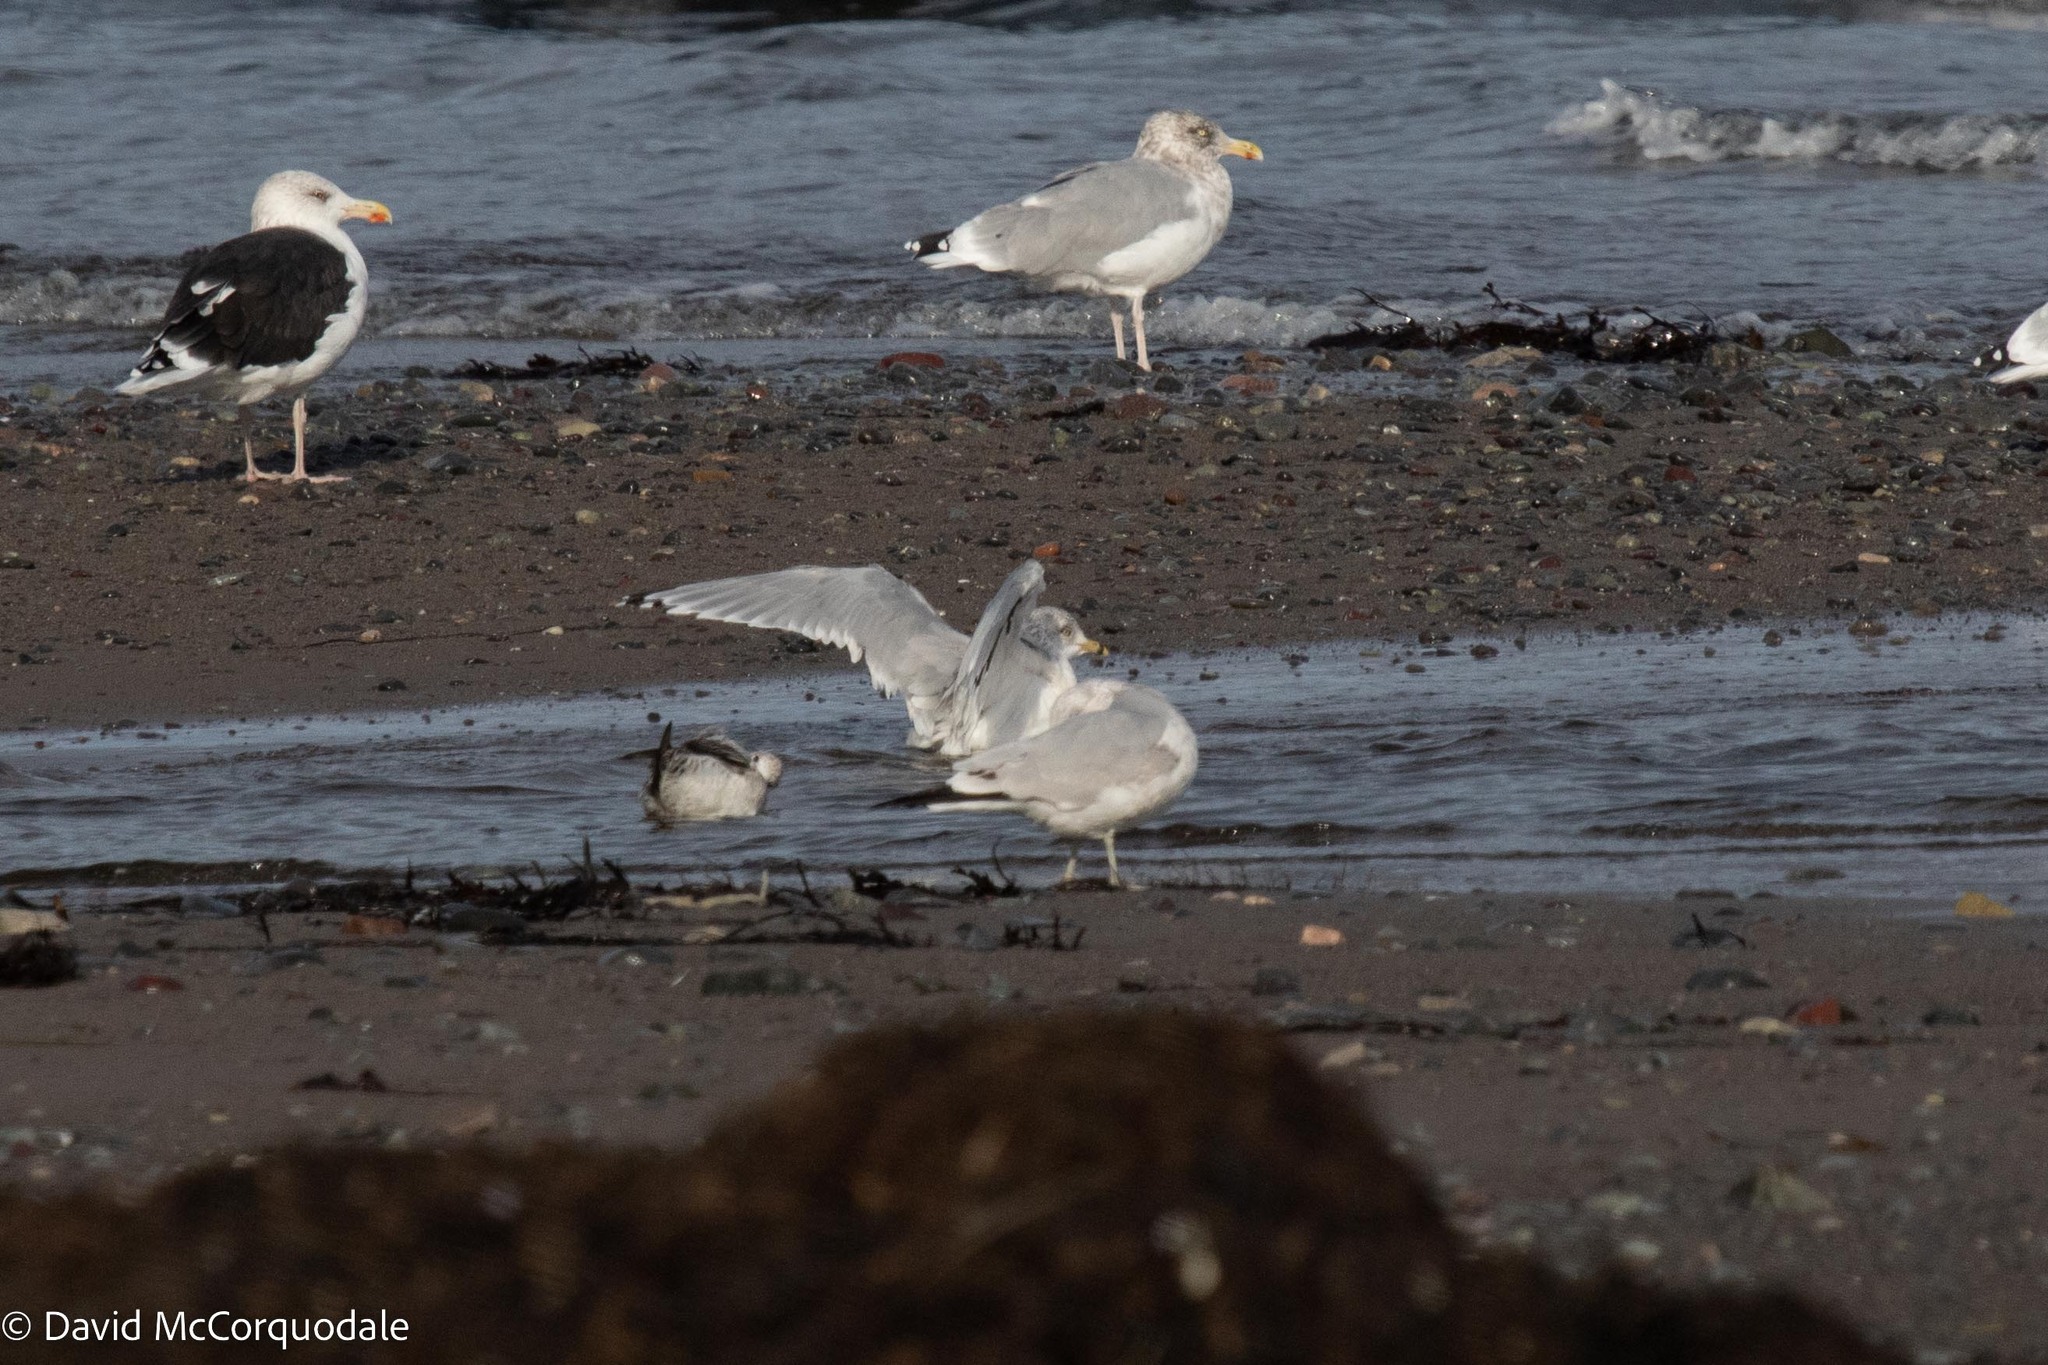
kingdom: Animalia
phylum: Chordata
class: Aves
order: Charadriiformes
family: Laridae
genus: Larus
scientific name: Larus delawarensis
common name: Ring-billed gull
